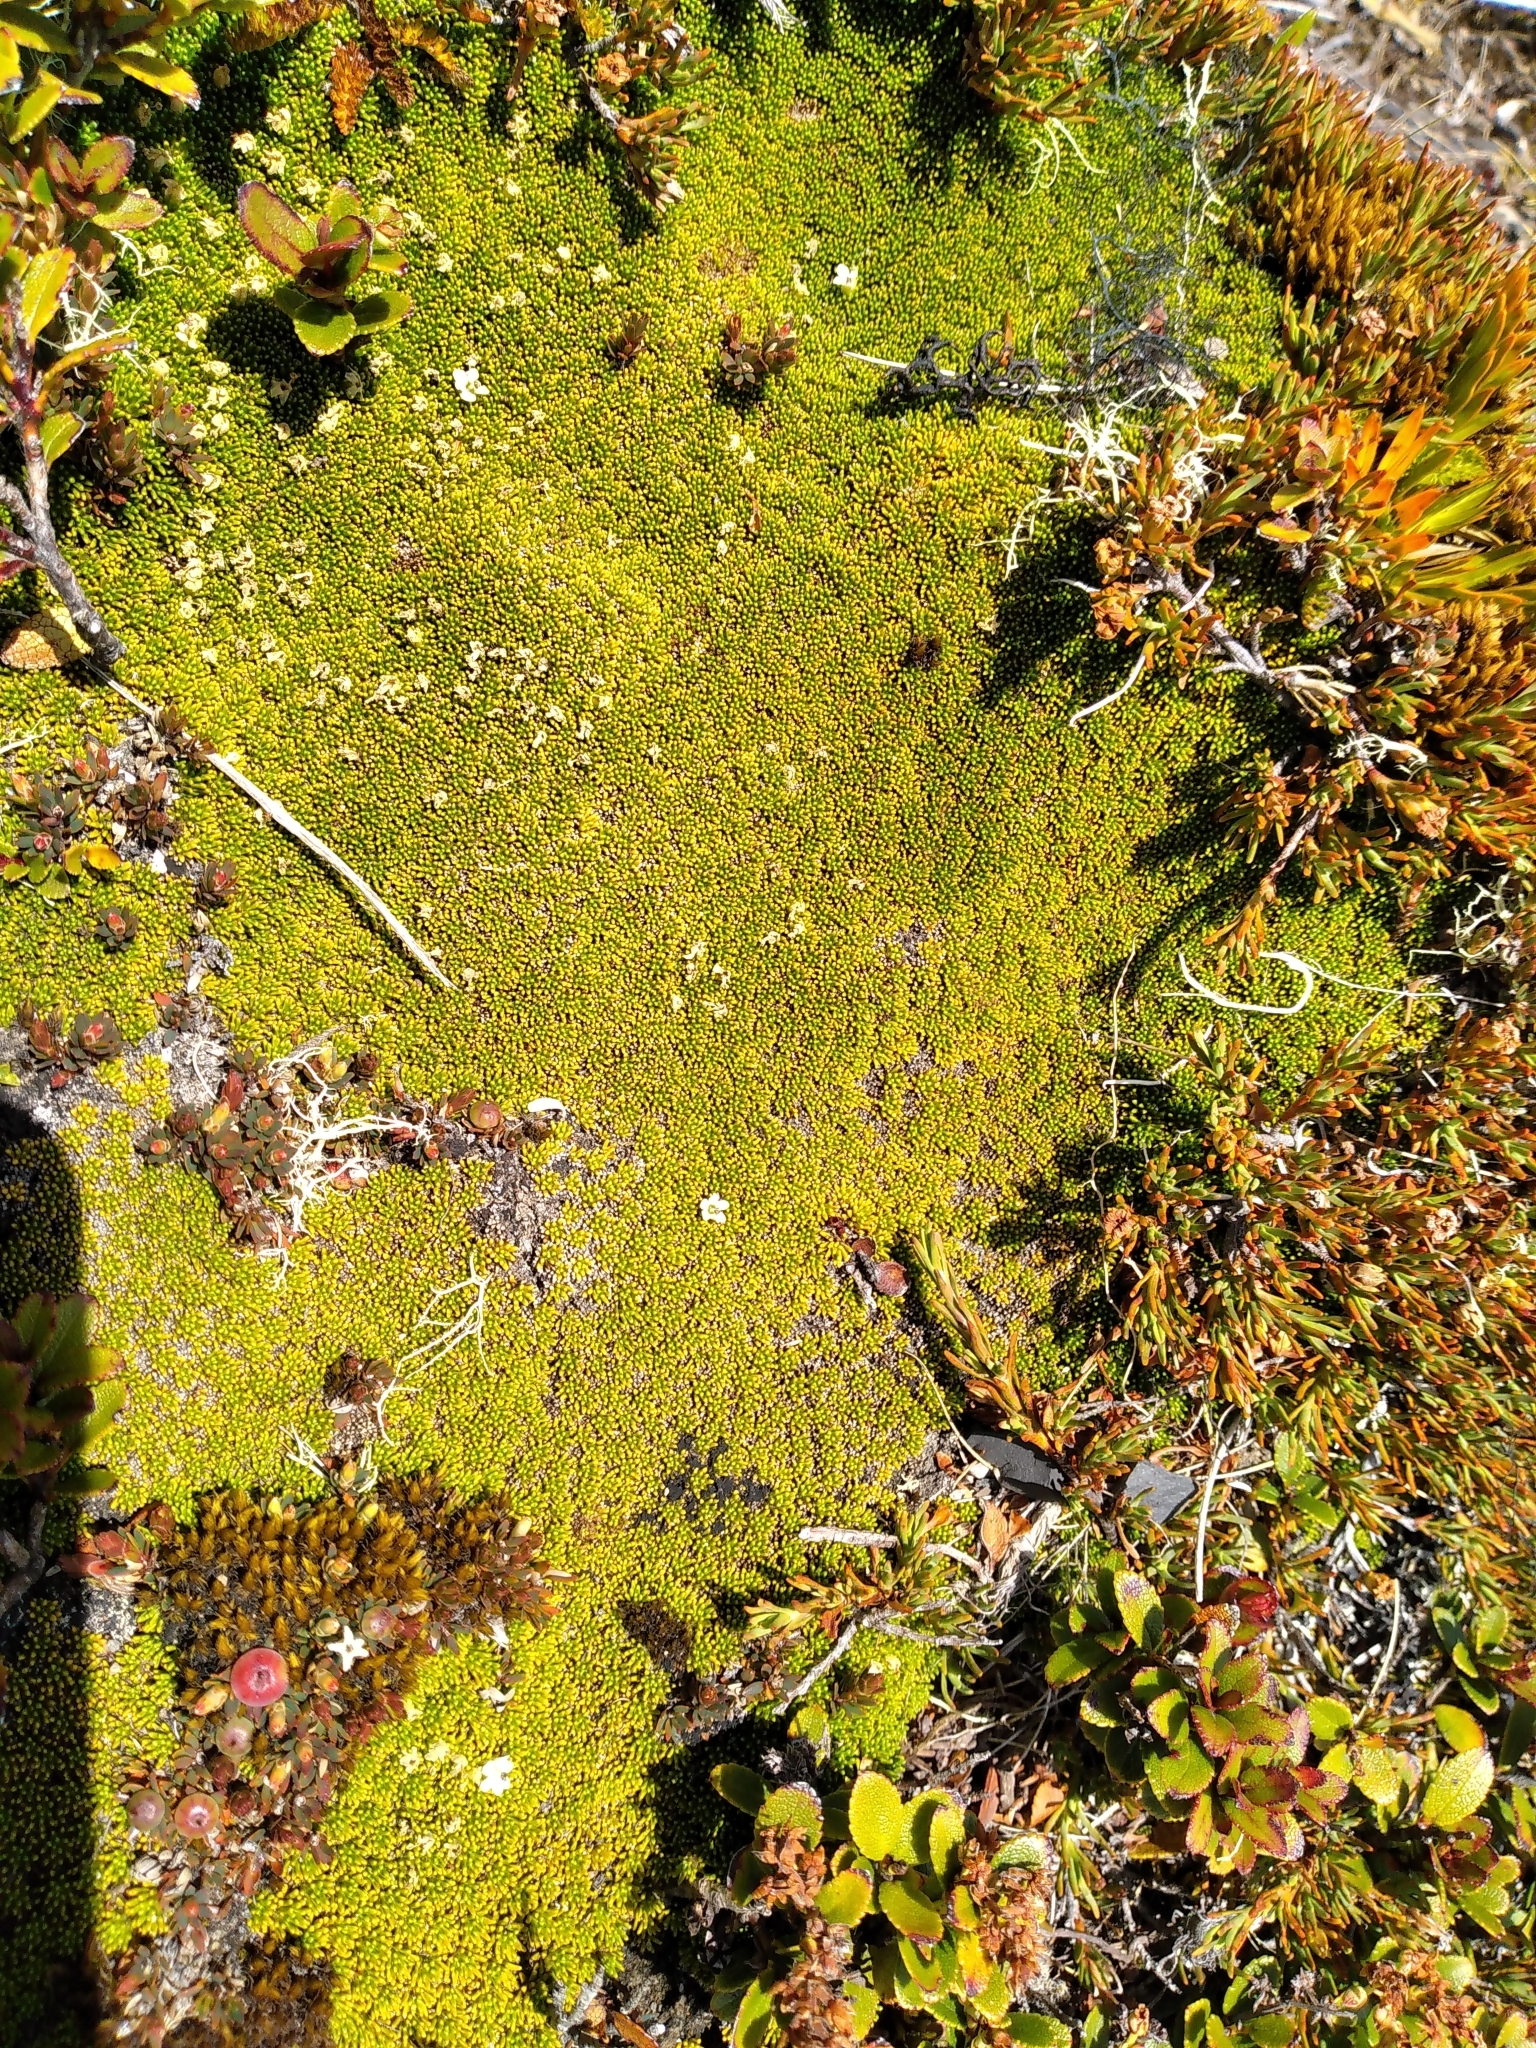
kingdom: Plantae
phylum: Tracheophyta
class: Magnoliopsida
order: Asterales
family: Stylidiaceae
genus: Phyllachne
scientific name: Phyllachne colensoi
